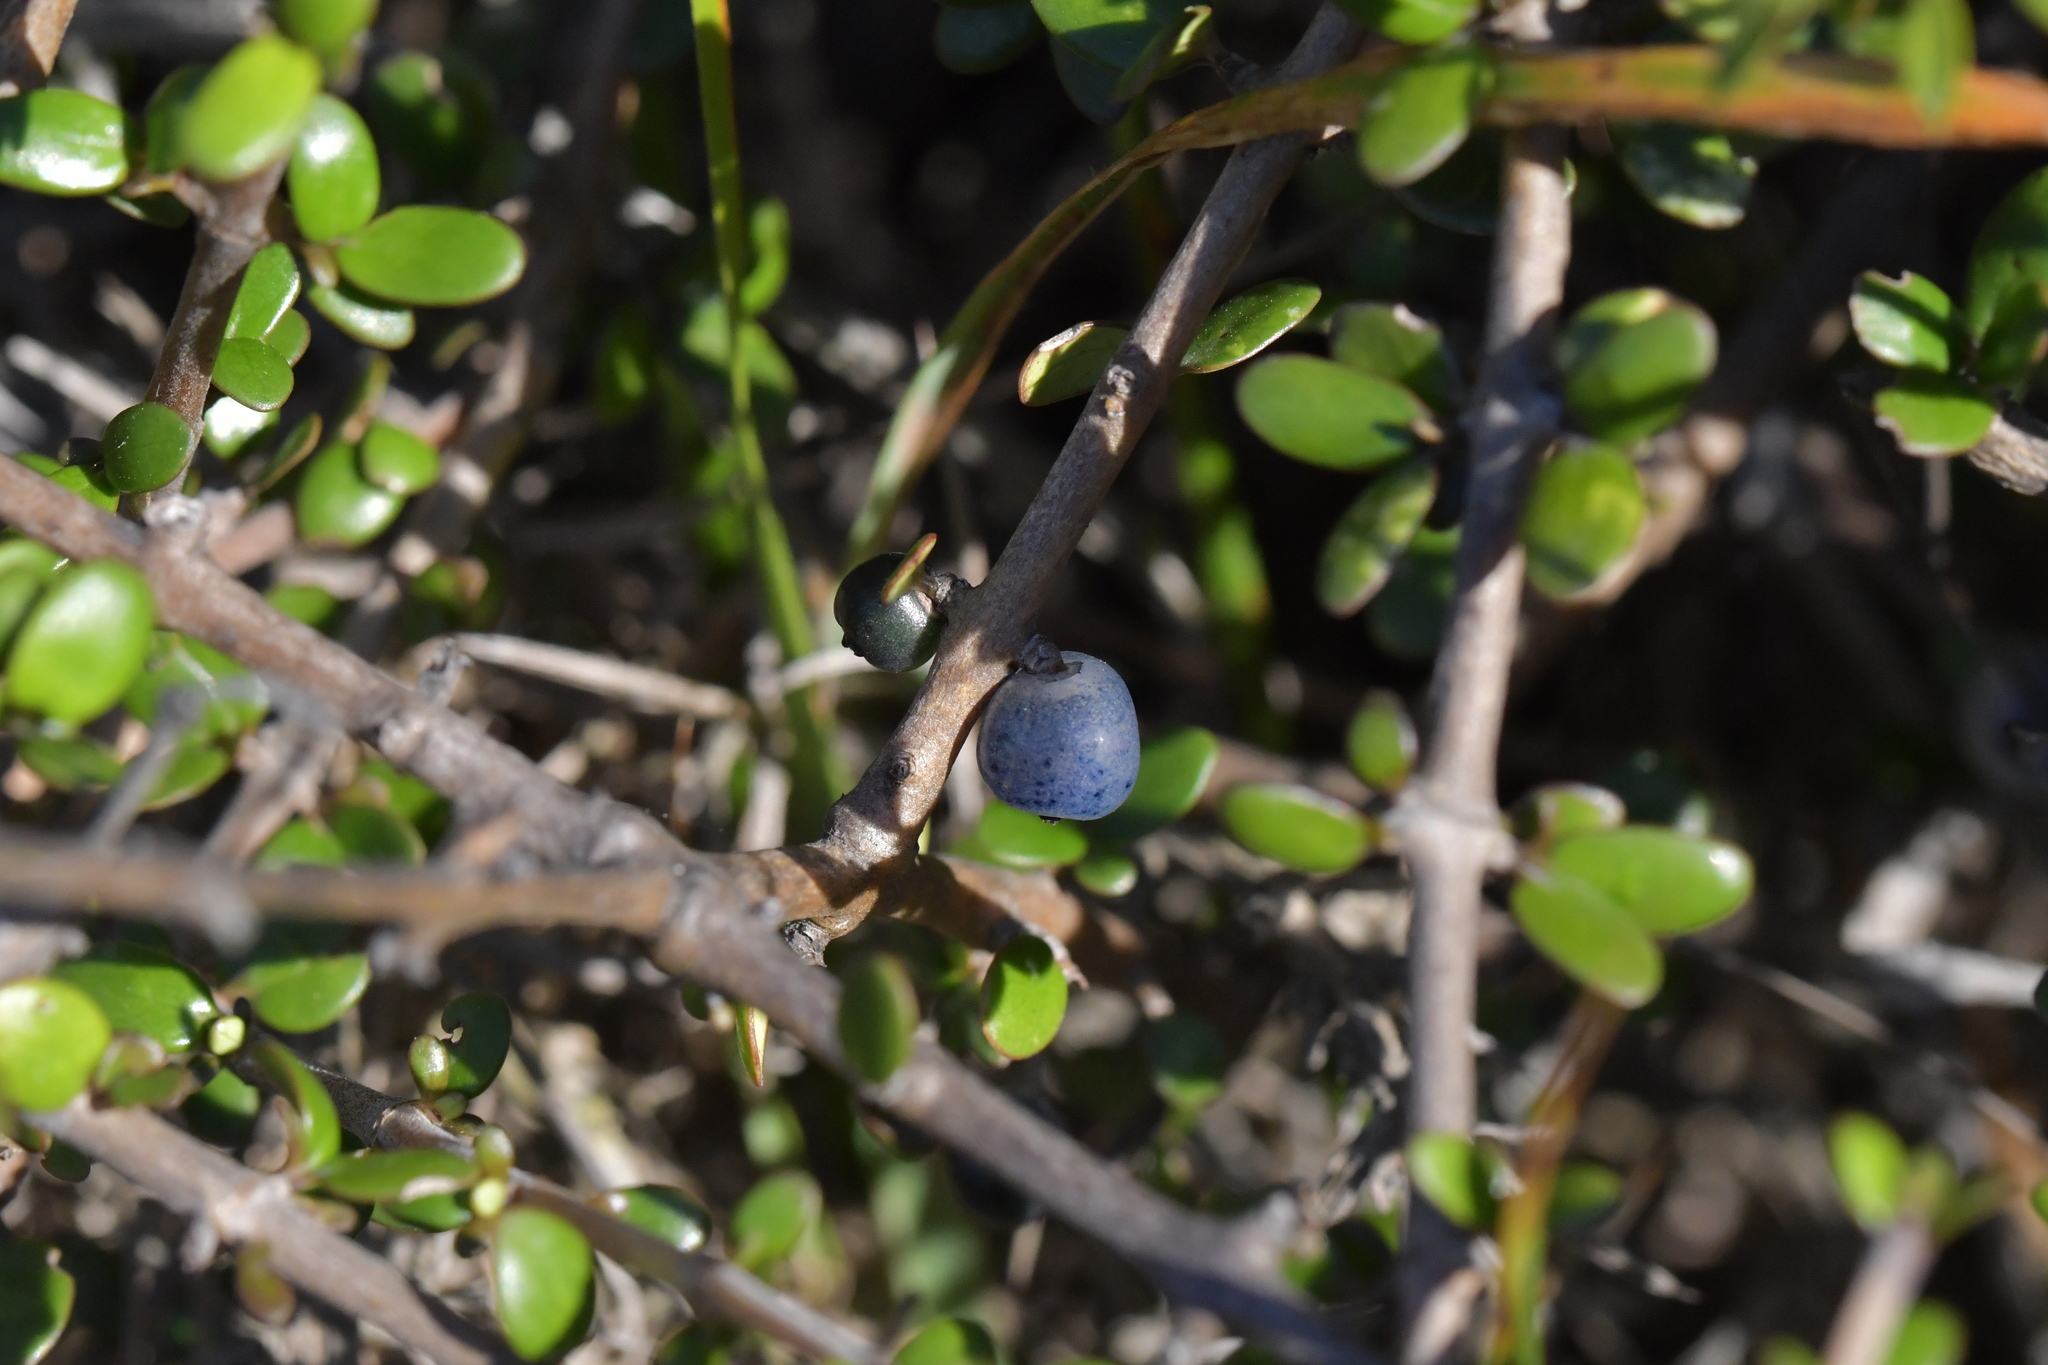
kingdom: Plantae
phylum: Tracheophyta
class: Magnoliopsida
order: Gentianales
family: Rubiaceae
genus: Coprosma
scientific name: Coprosma propinqua
